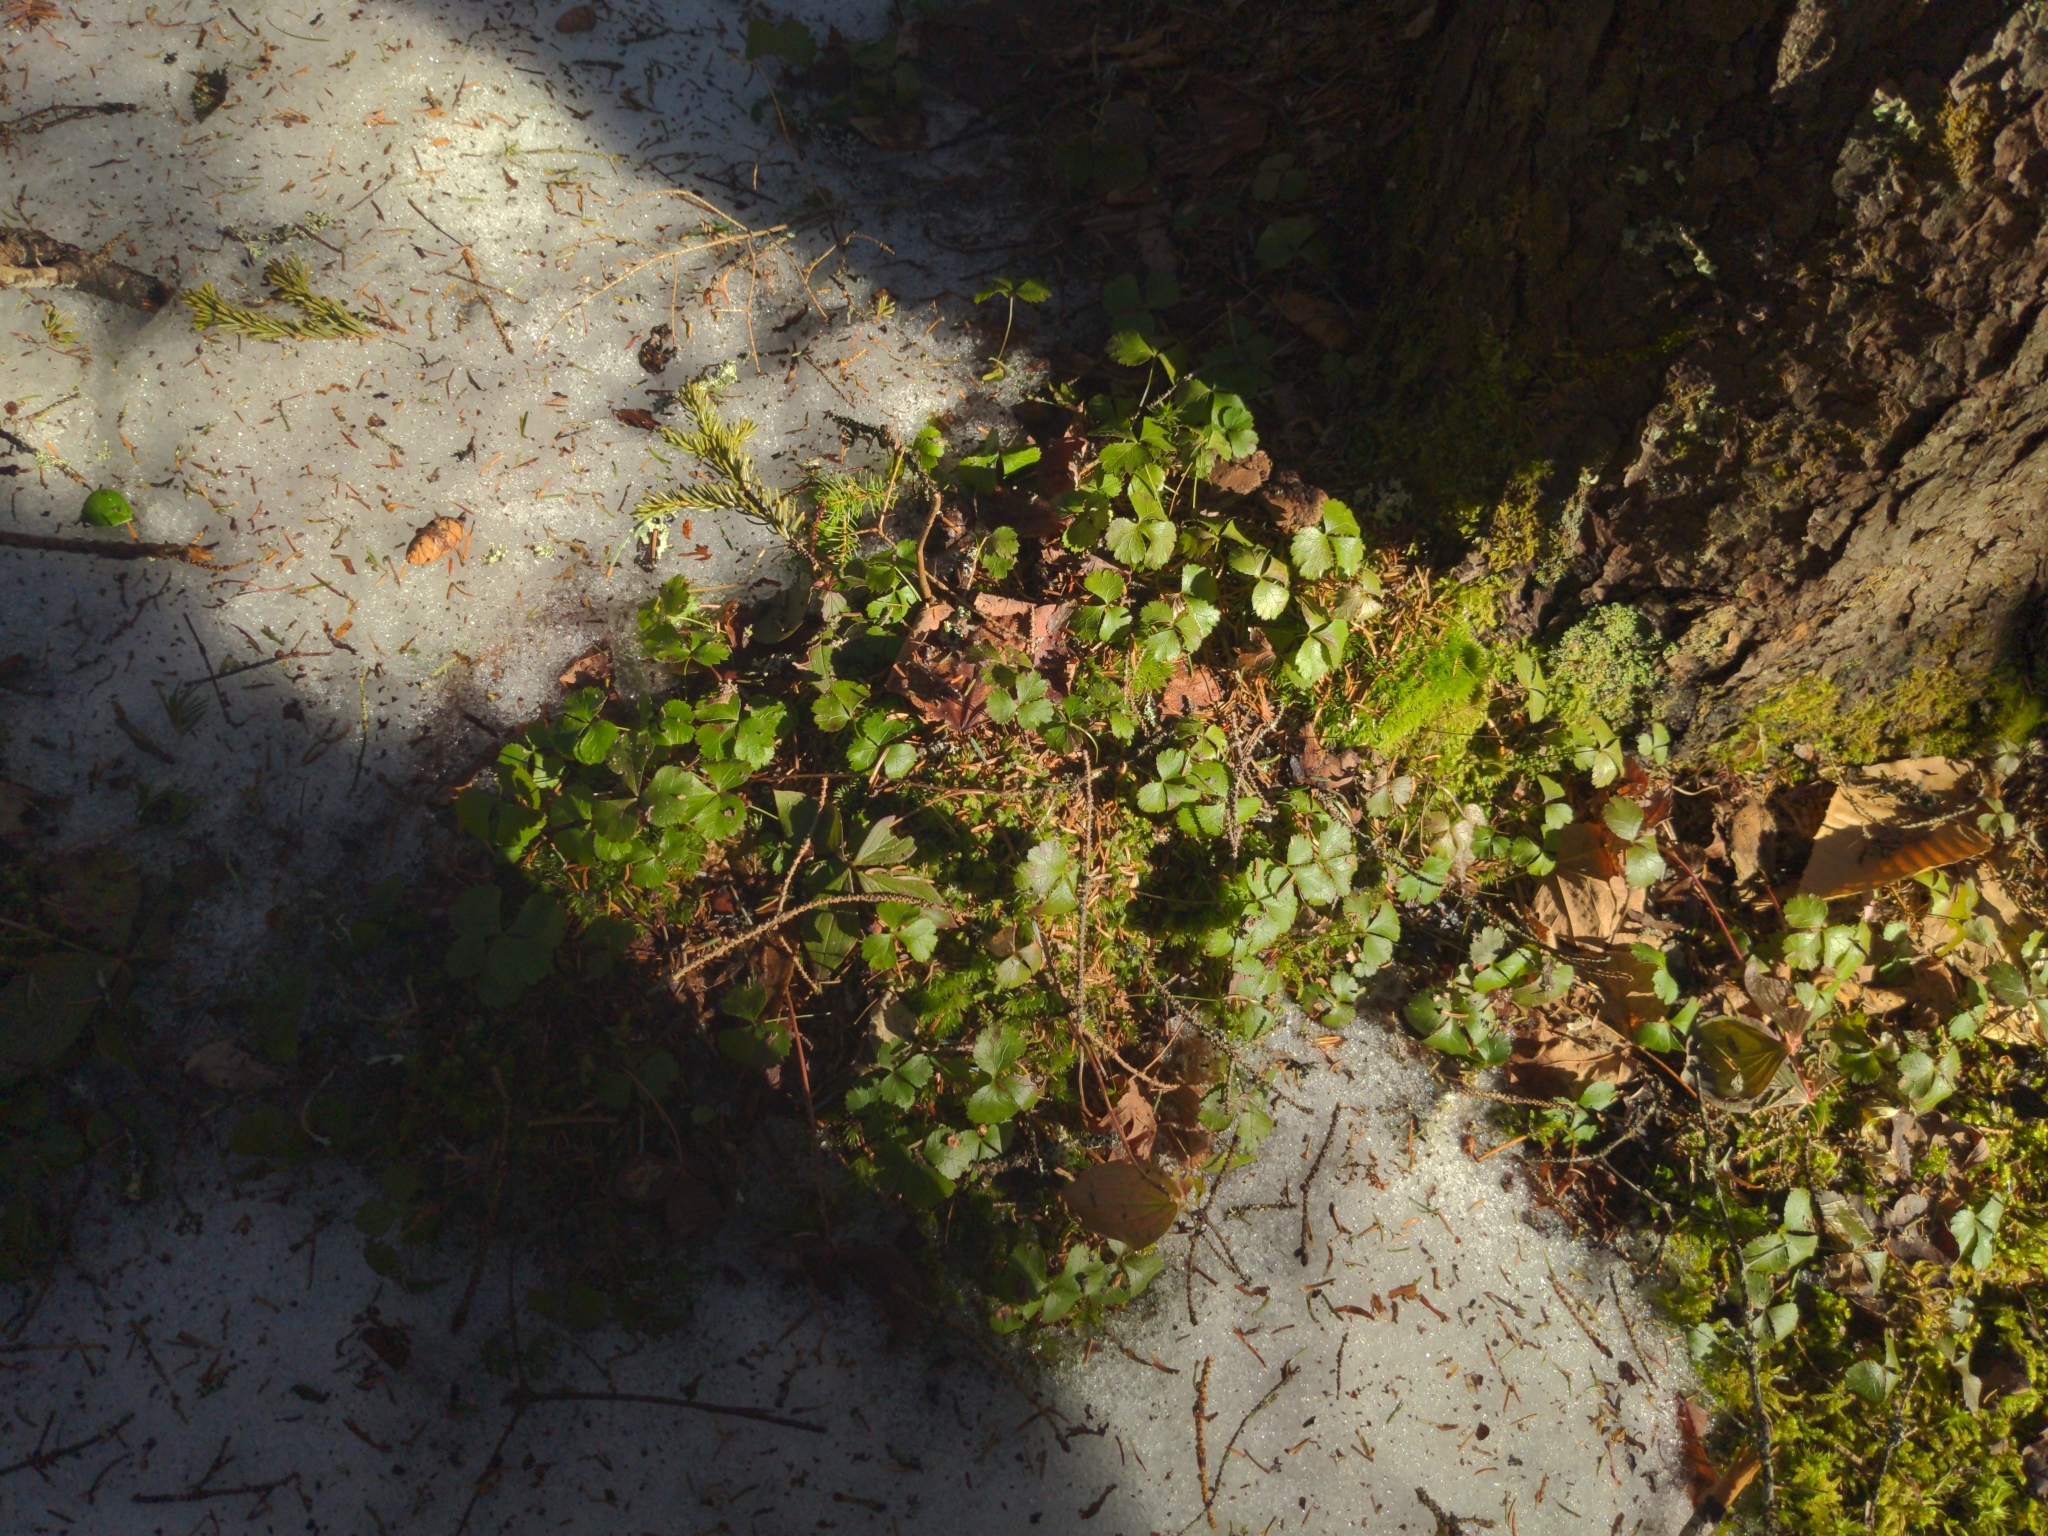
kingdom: Plantae
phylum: Tracheophyta
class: Magnoliopsida
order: Ranunculales
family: Ranunculaceae
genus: Coptis
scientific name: Coptis trifolia
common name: Canker-root
